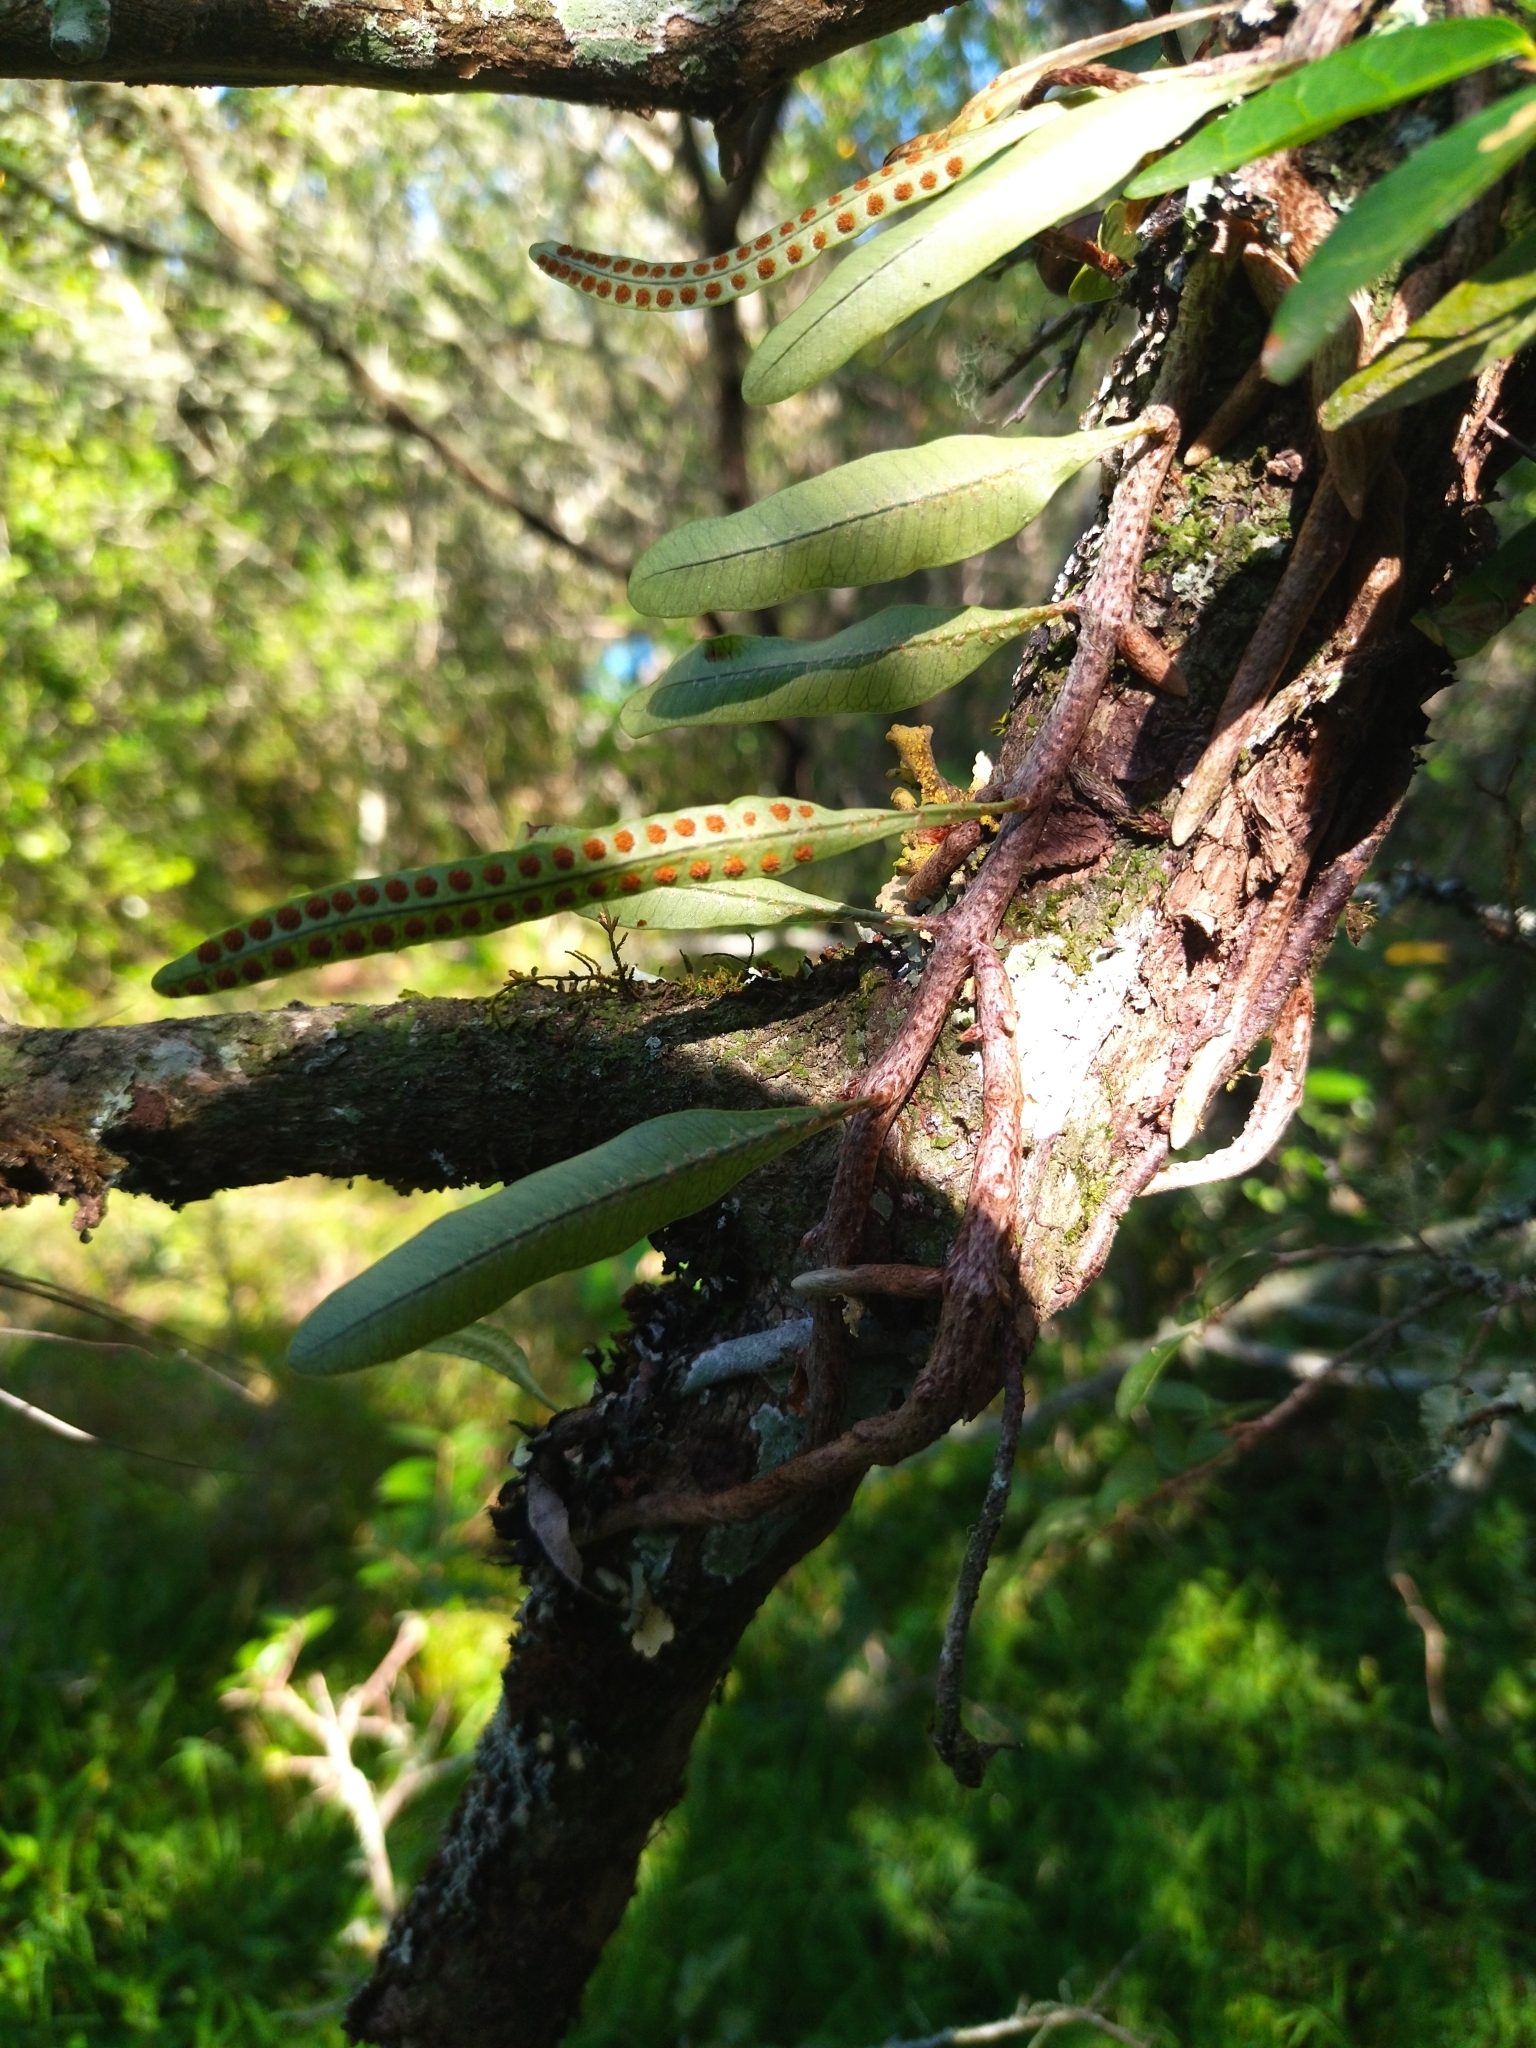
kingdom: Plantae
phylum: Tracheophyta
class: Polypodiopsida
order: Polypodiales
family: Polypodiaceae
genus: Microgramma
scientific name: Microgramma squamulosa
